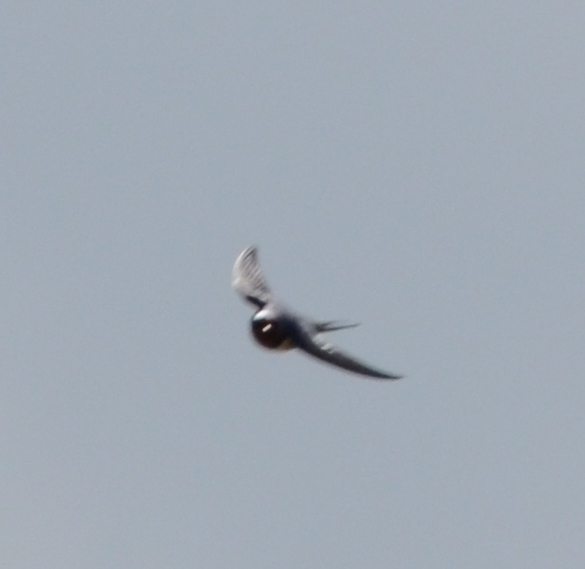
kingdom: Animalia
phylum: Chordata
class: Aves
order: Passeriformes
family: Hirundinidae
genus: Hirundo
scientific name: Hirundo rustica
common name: Barn swallow
